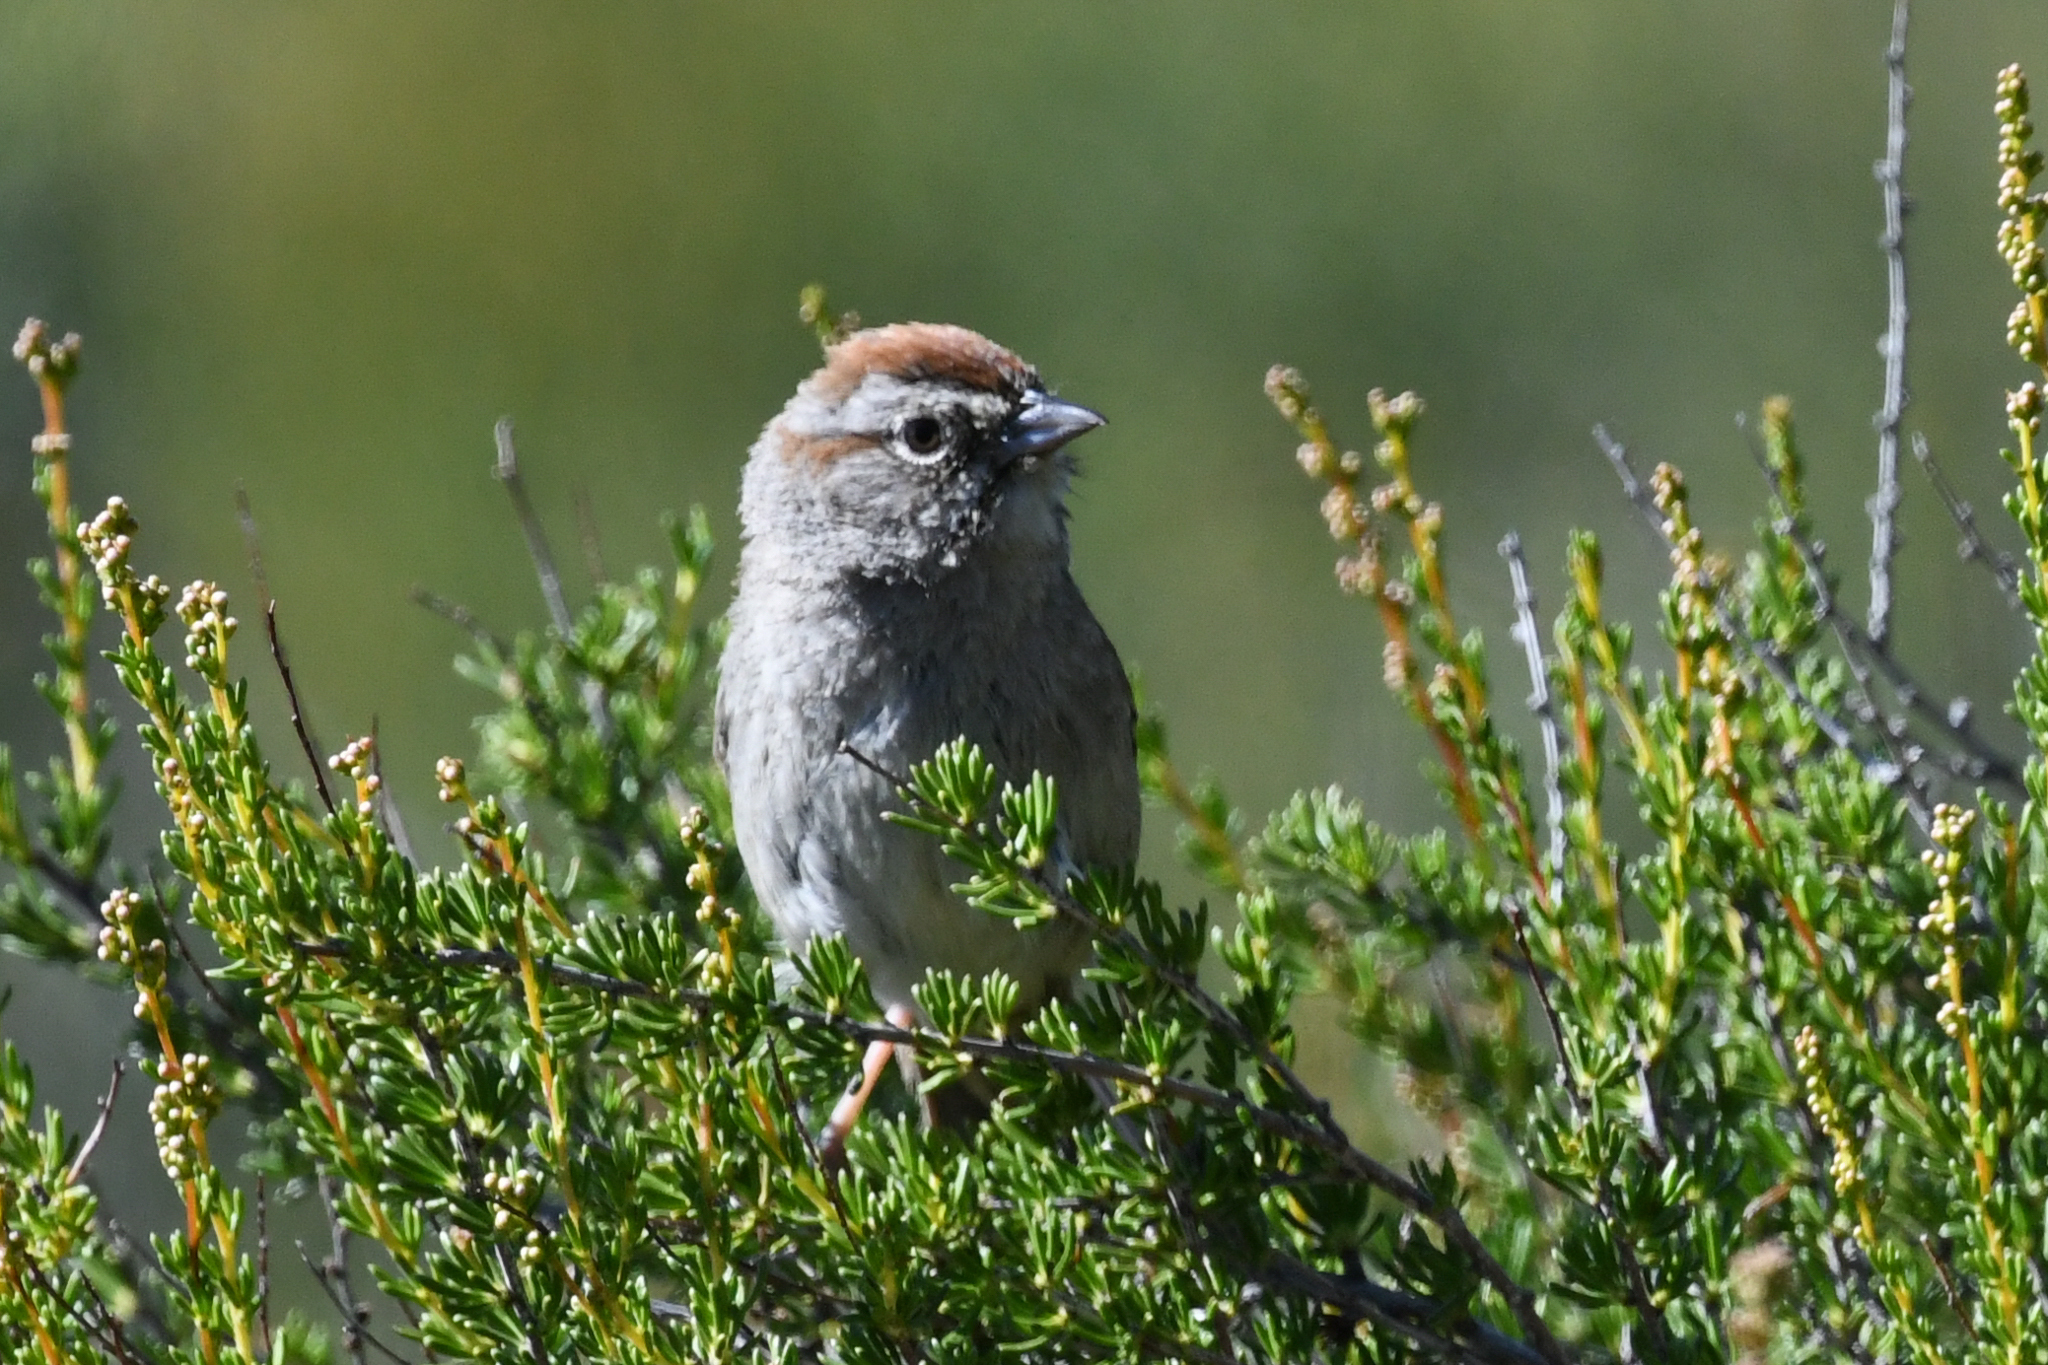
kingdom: Animalia
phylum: Chordata
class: Aves
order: Passeriformes
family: Passerellidae
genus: Aimophila
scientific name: Aimophila ruficeps
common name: Rufous-crowned sparrow
